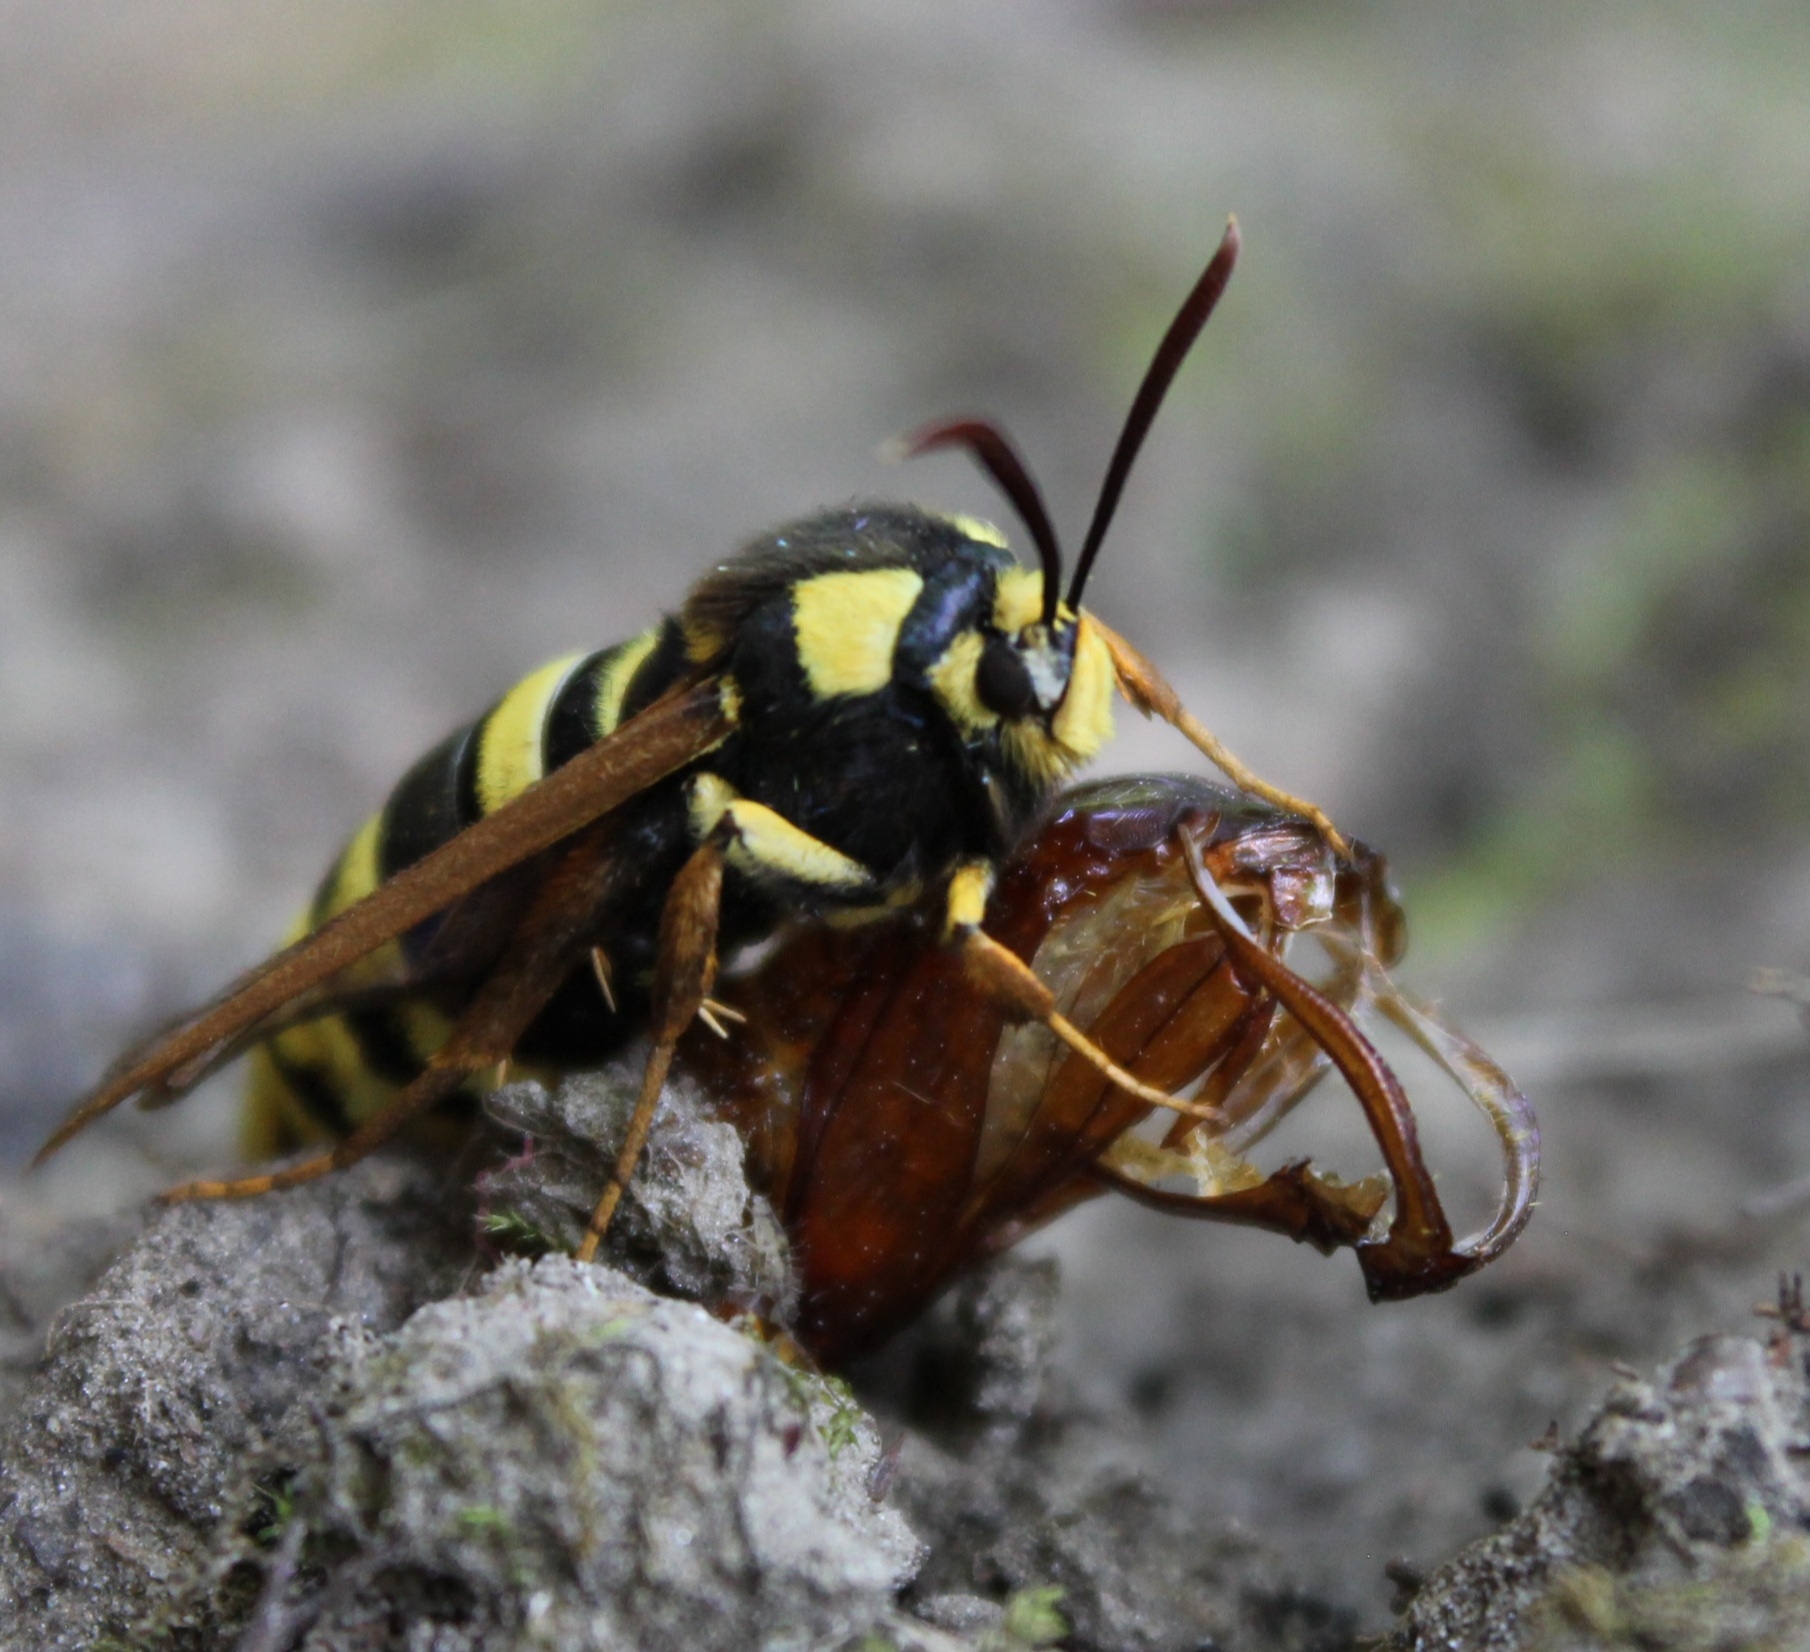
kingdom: Animalia
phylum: Arthropoda
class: Insecta
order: Lepidoptera
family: Sesiidae
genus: Sesia
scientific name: Sesia apiformis
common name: Hornet moth
